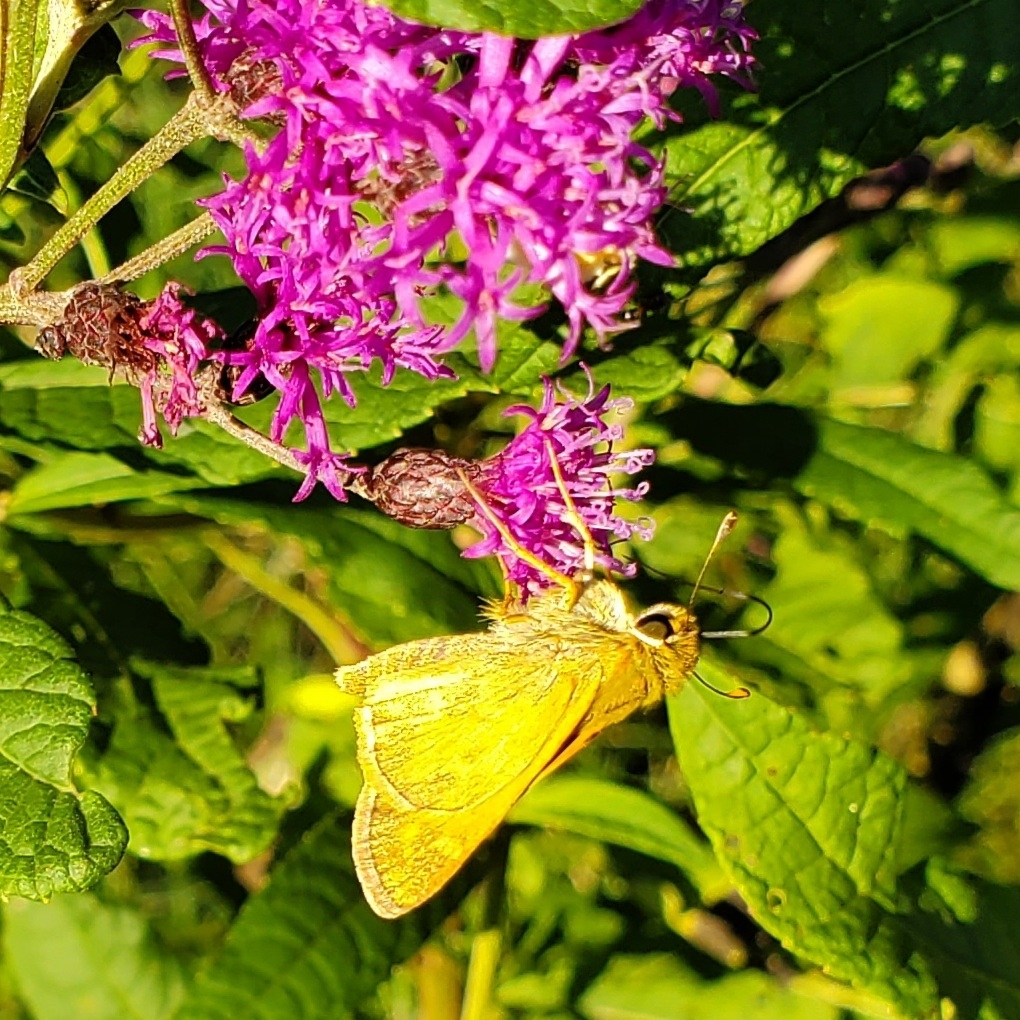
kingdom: Animalia
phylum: Arthropoda
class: Insecta
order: Lepidoptera
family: Hesperiidae
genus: Atalopedes
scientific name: Atalopedes
